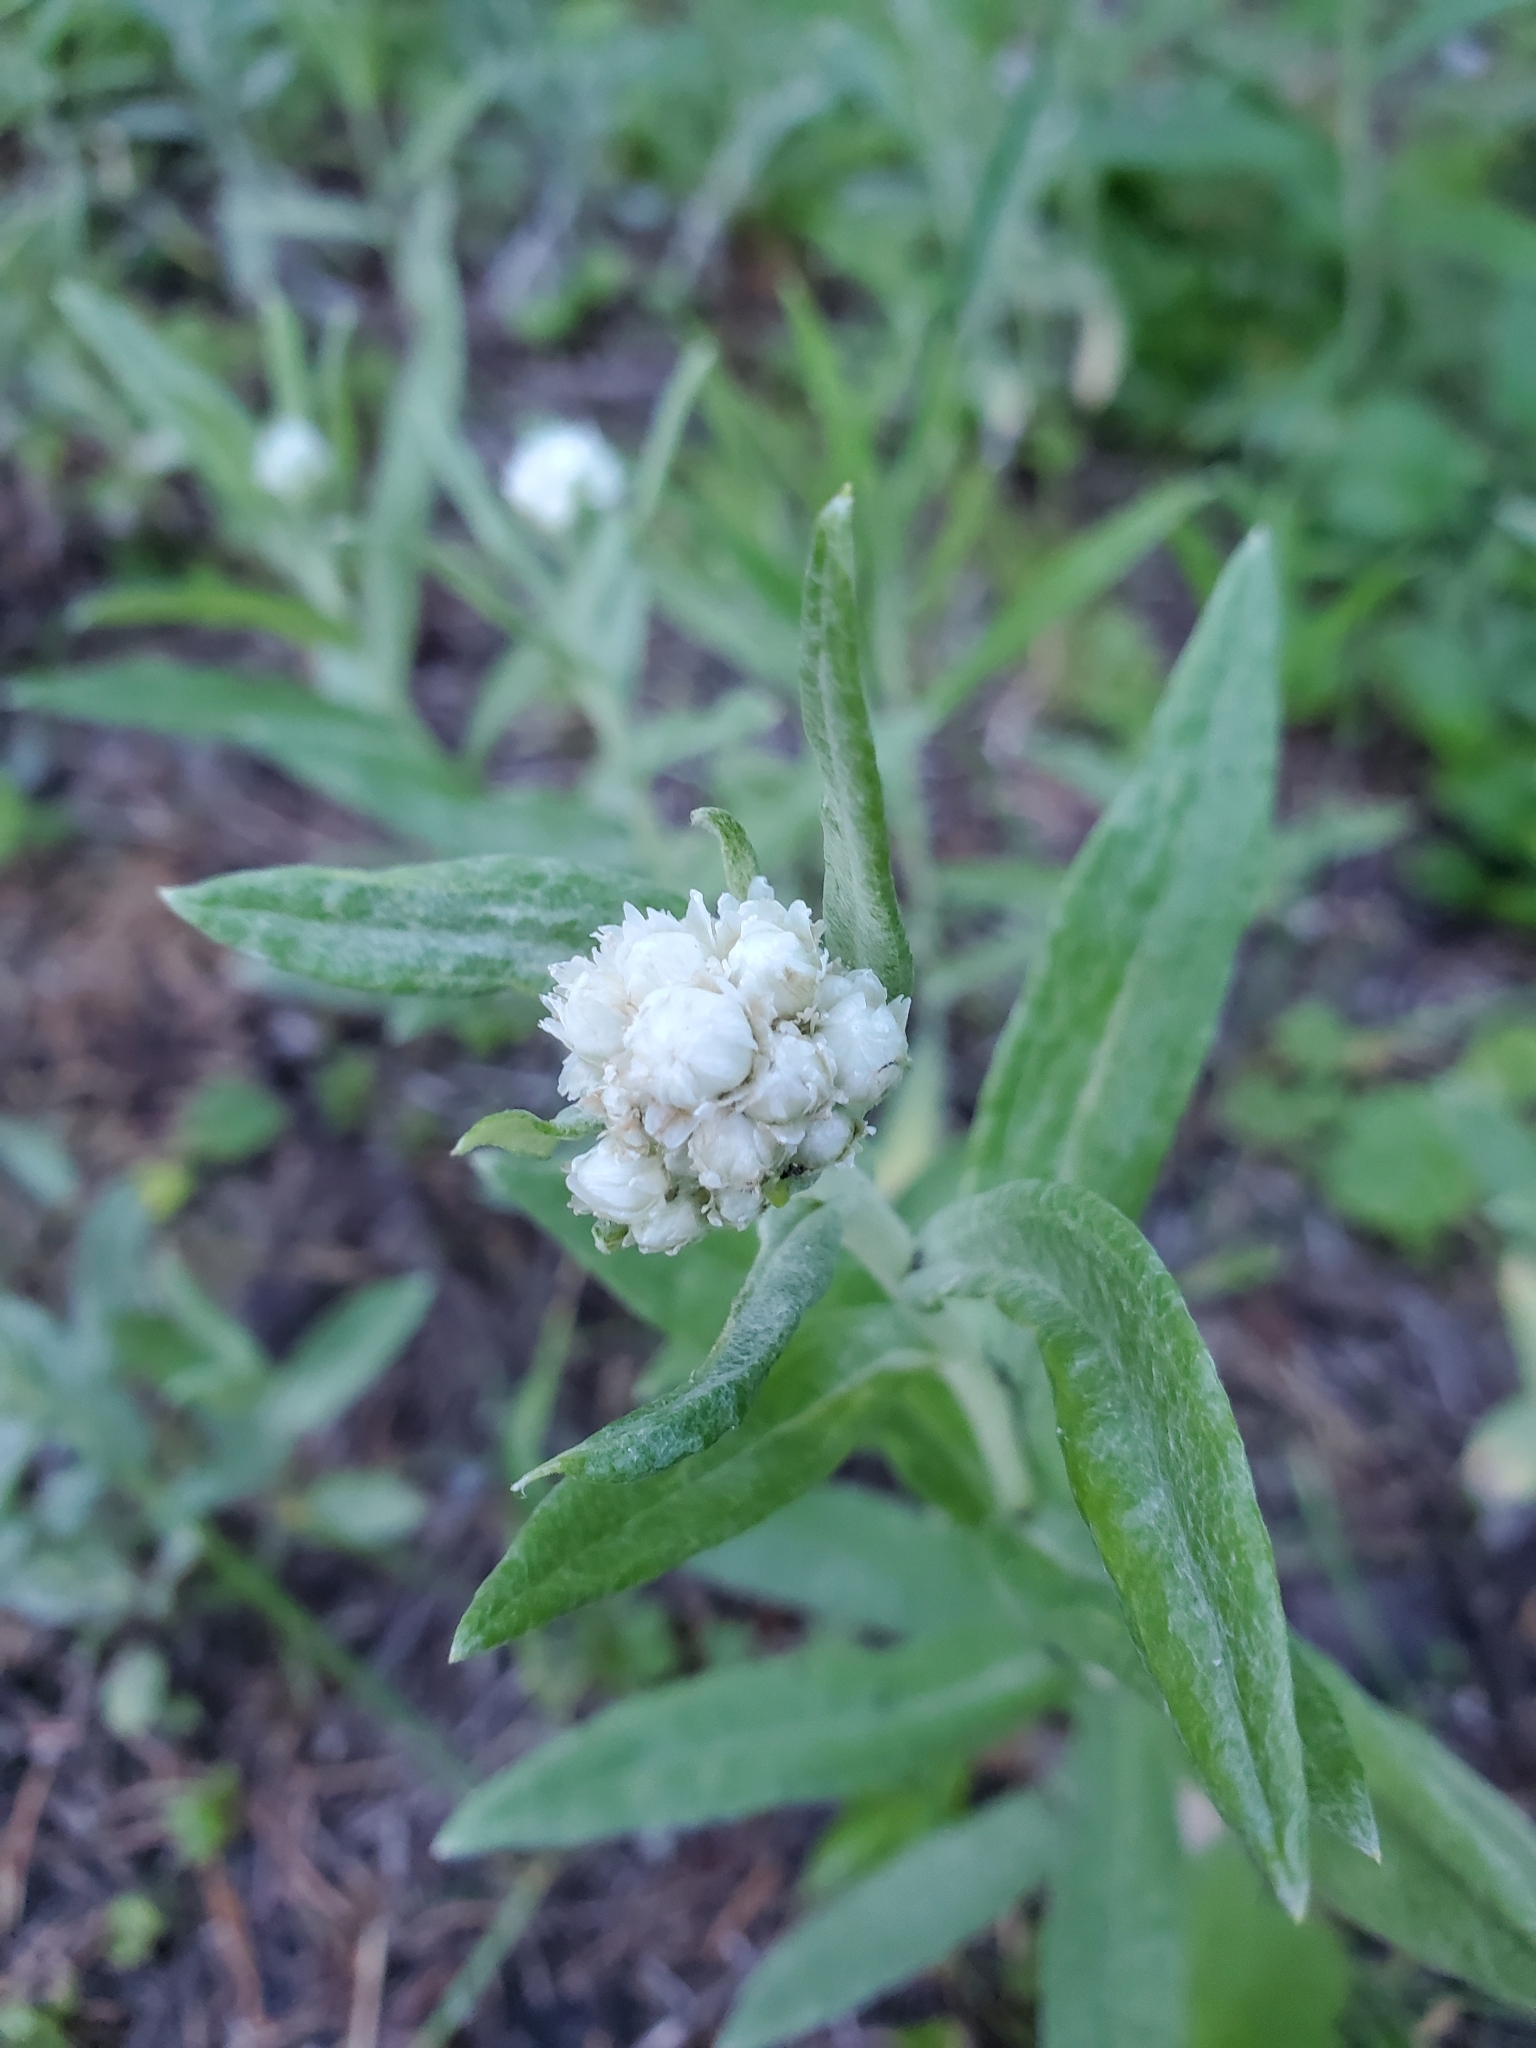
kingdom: Plantae
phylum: Tracheophyta
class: Magnoliopsida
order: Asterales
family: Asteraceae
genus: Anaphalis
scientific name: Anaphalis margaritacea
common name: Pearly everlasting
